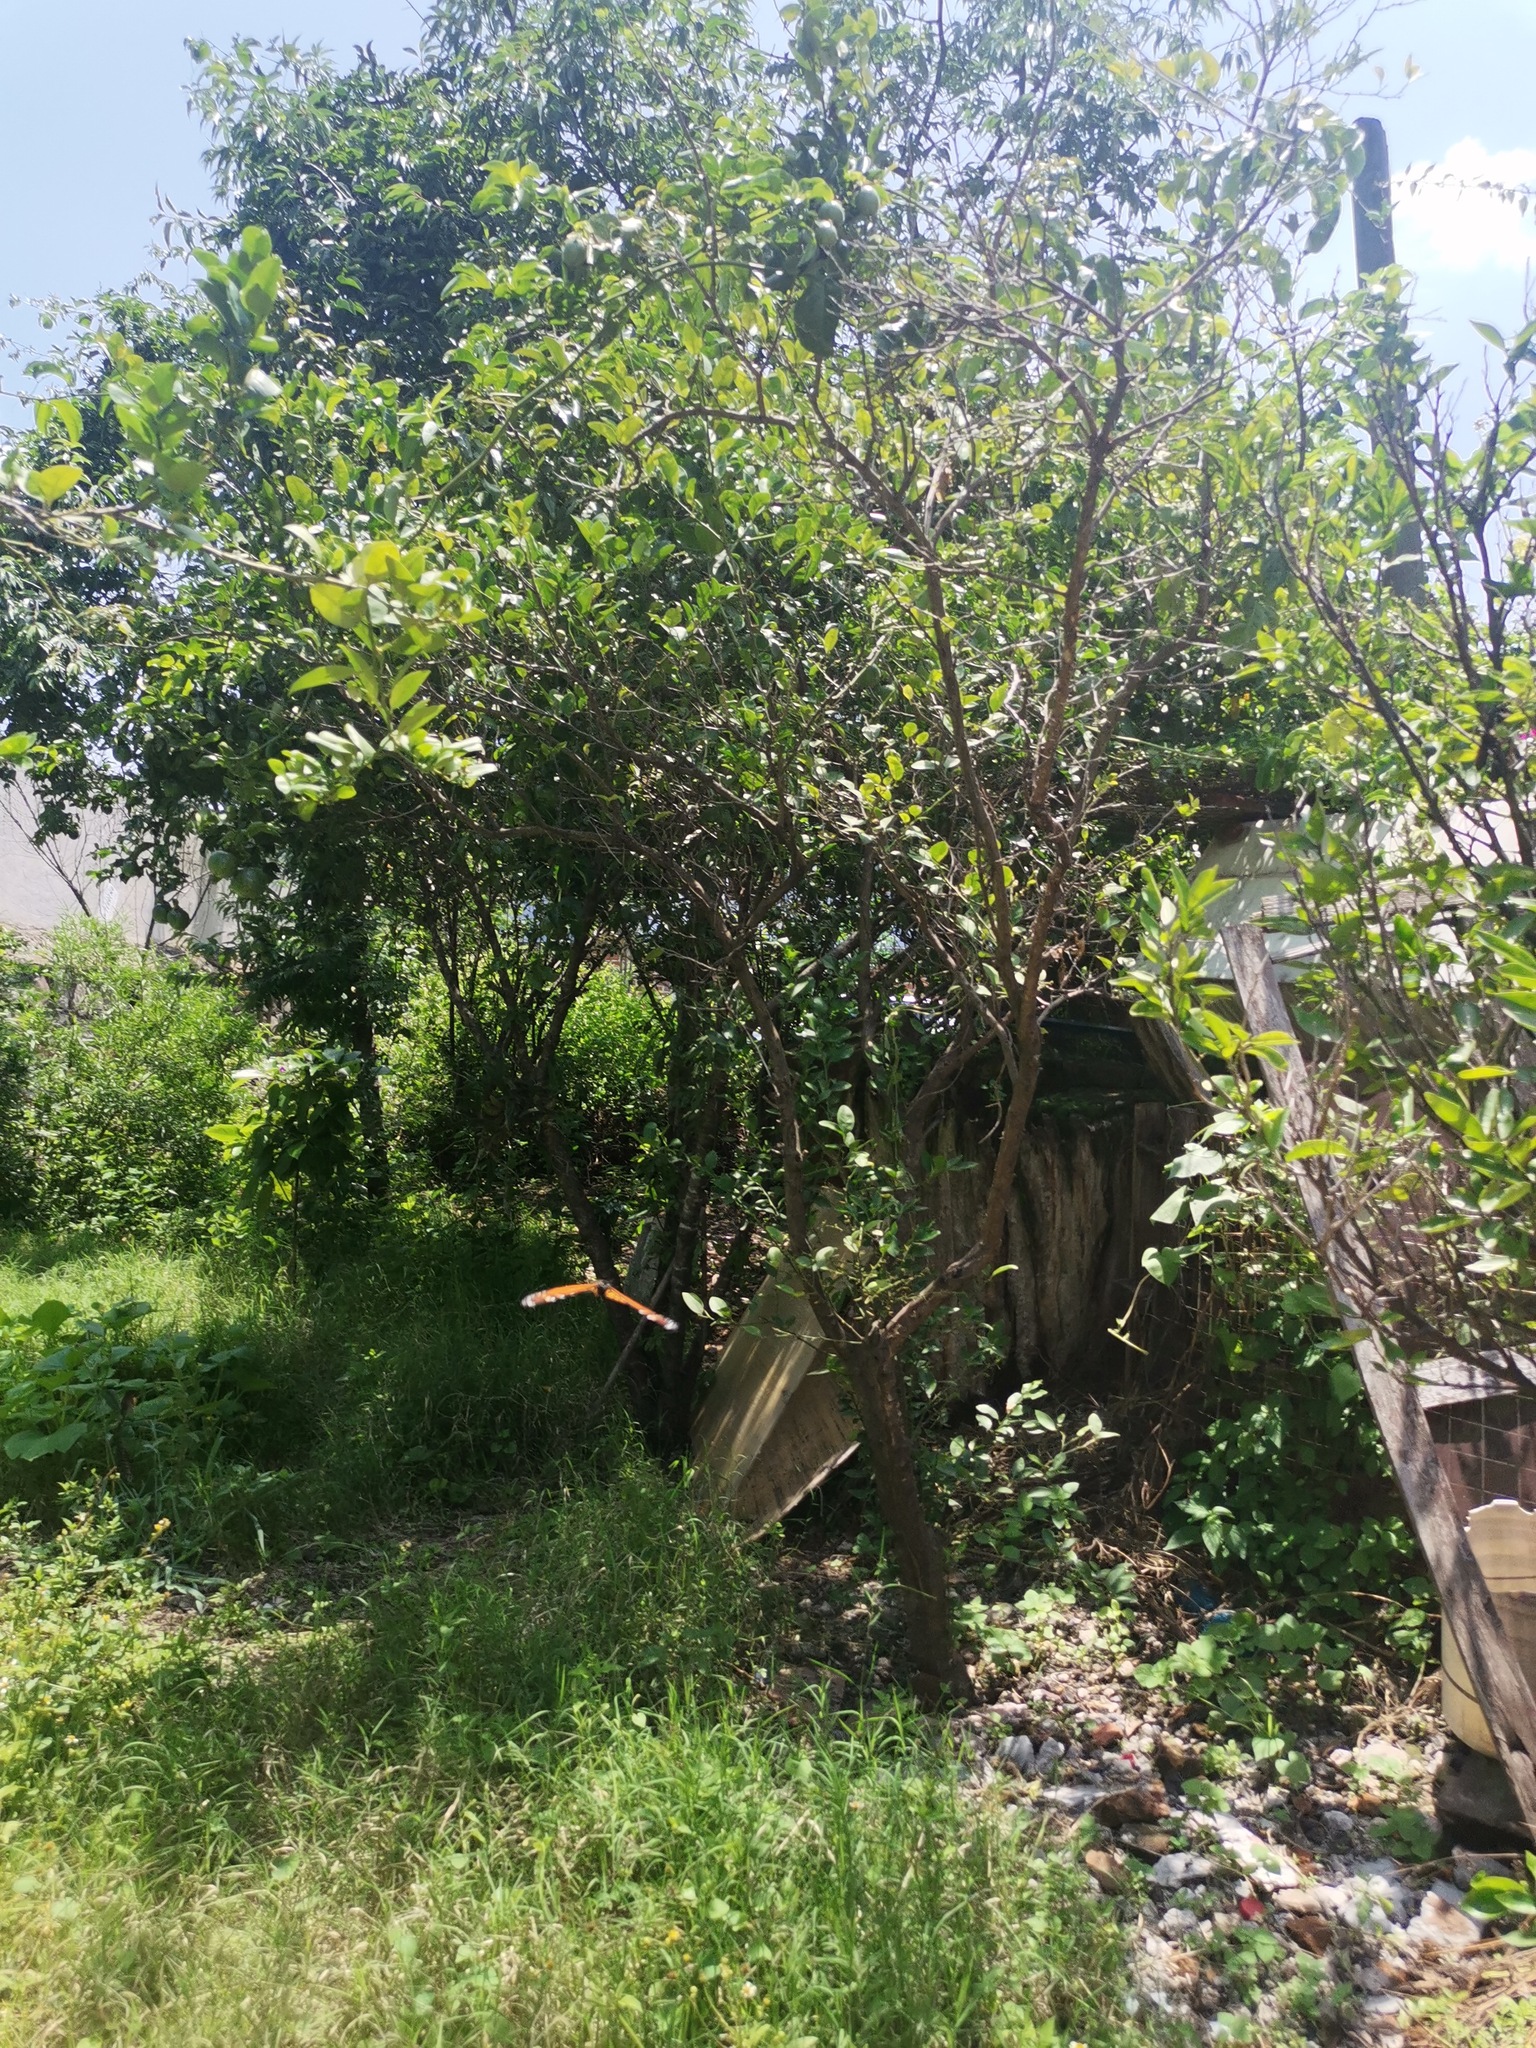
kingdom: Animalia
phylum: Arthropoda
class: Insecta
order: Lepidoptera
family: Nymphalidae
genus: Danaus
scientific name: Danaus plexippus
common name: Monarch
